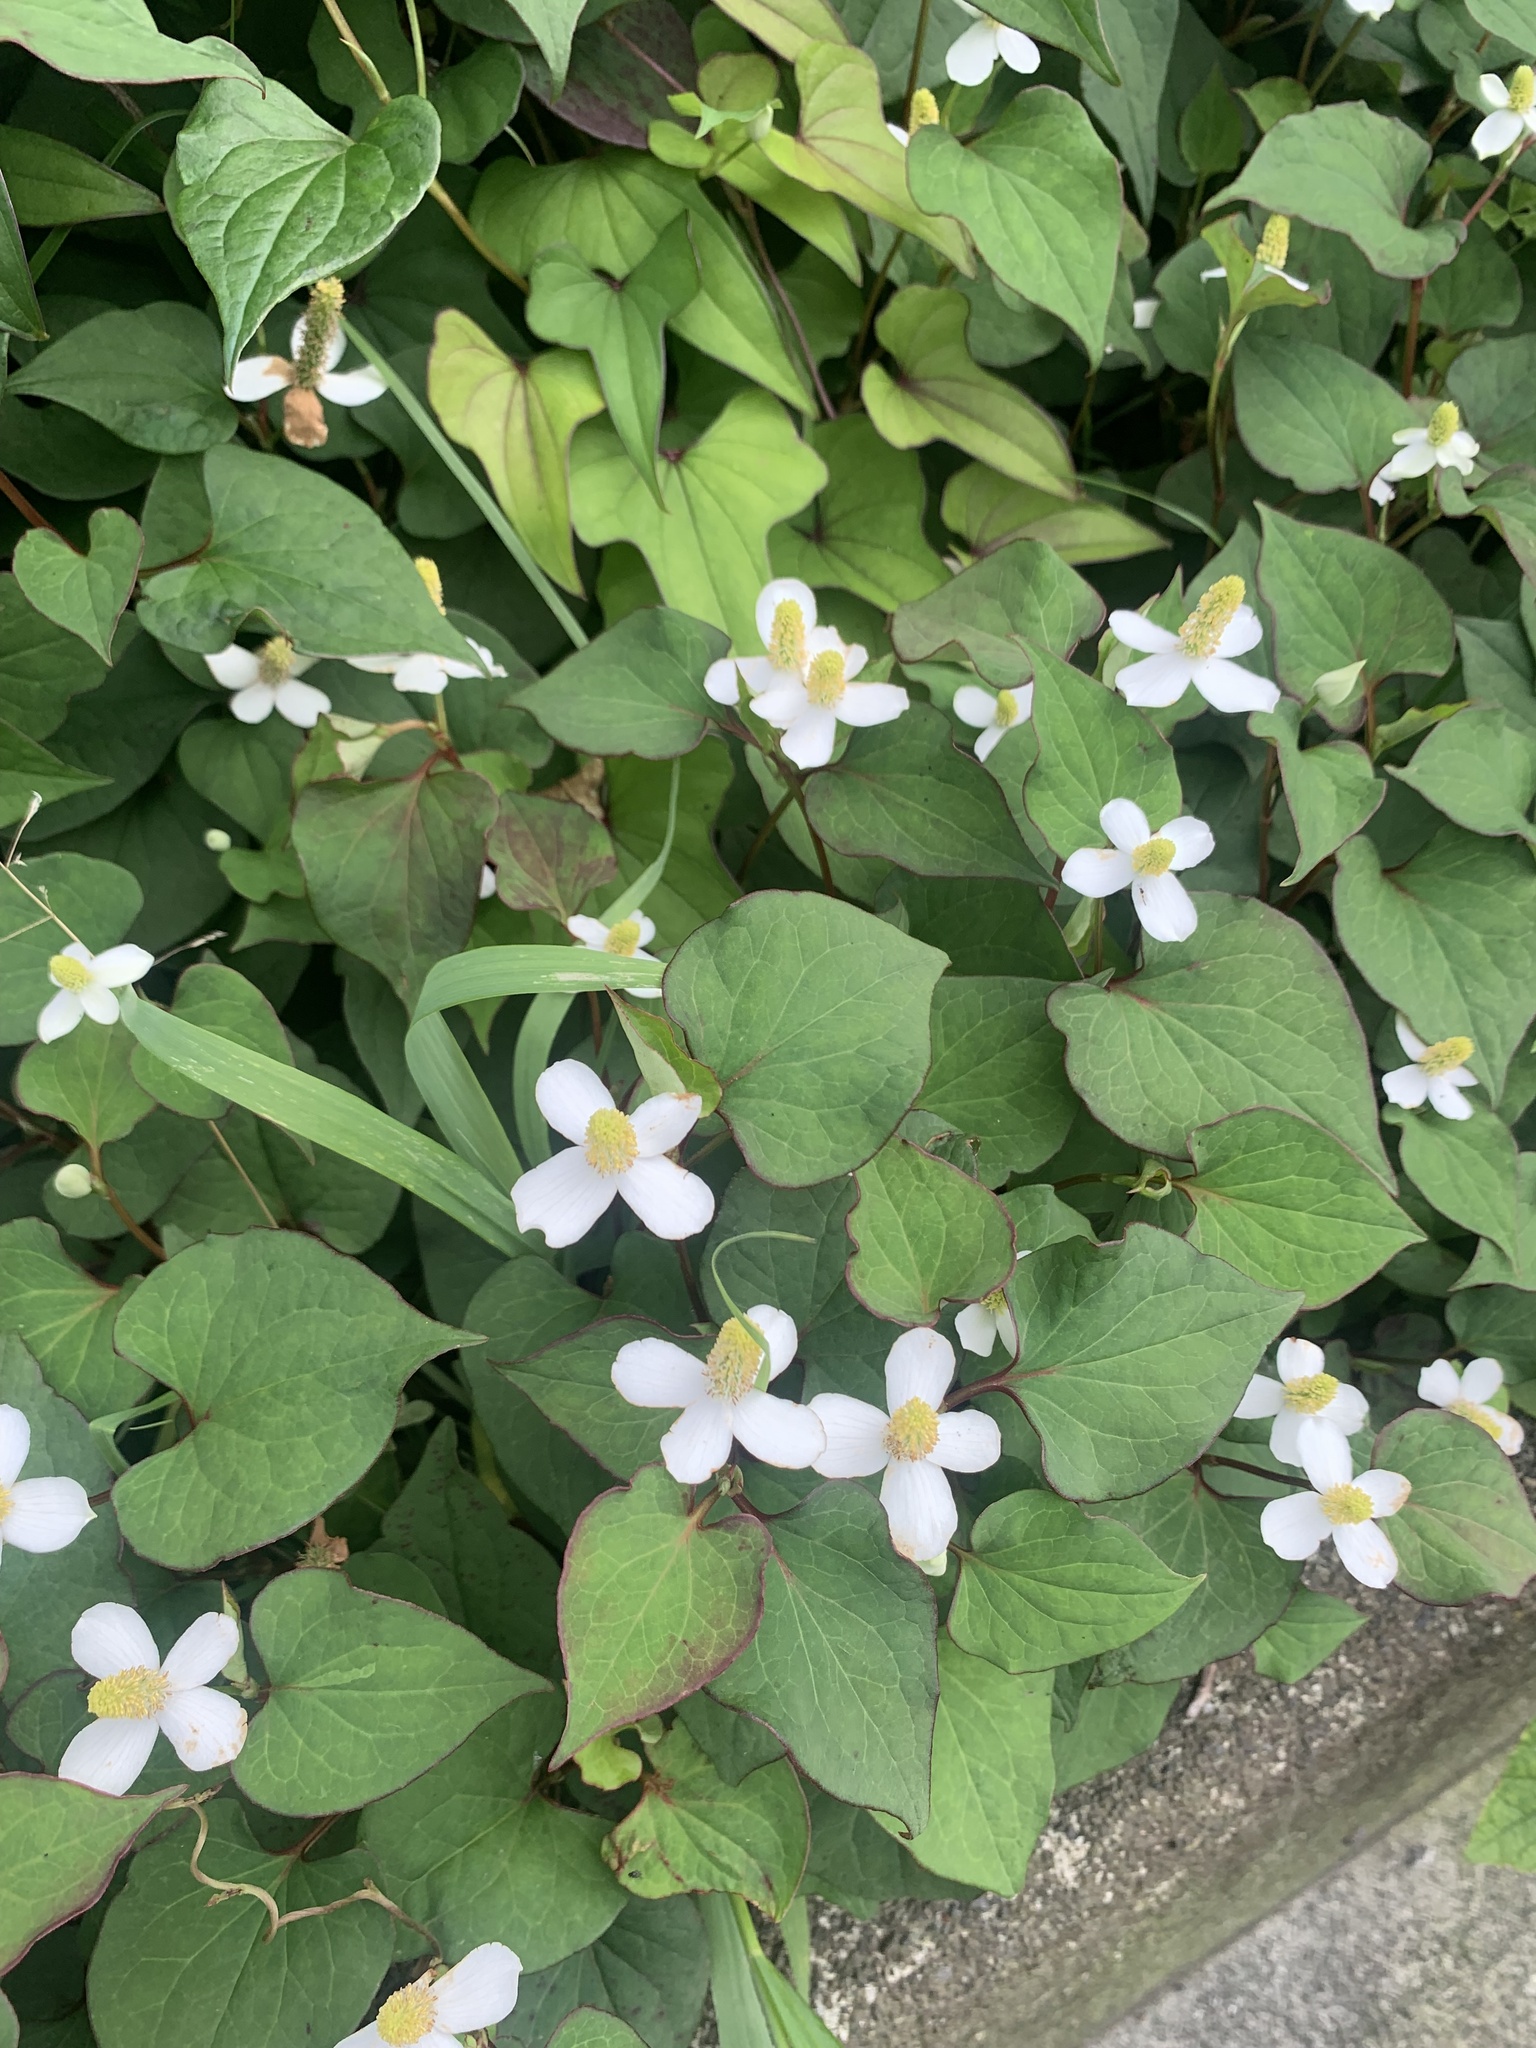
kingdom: Plantae
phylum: Tracheophyta
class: Magnoliopsida
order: Piperales
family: Saururaceae
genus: Houttuynia
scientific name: Houttuynia cordata
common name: Chameleon
